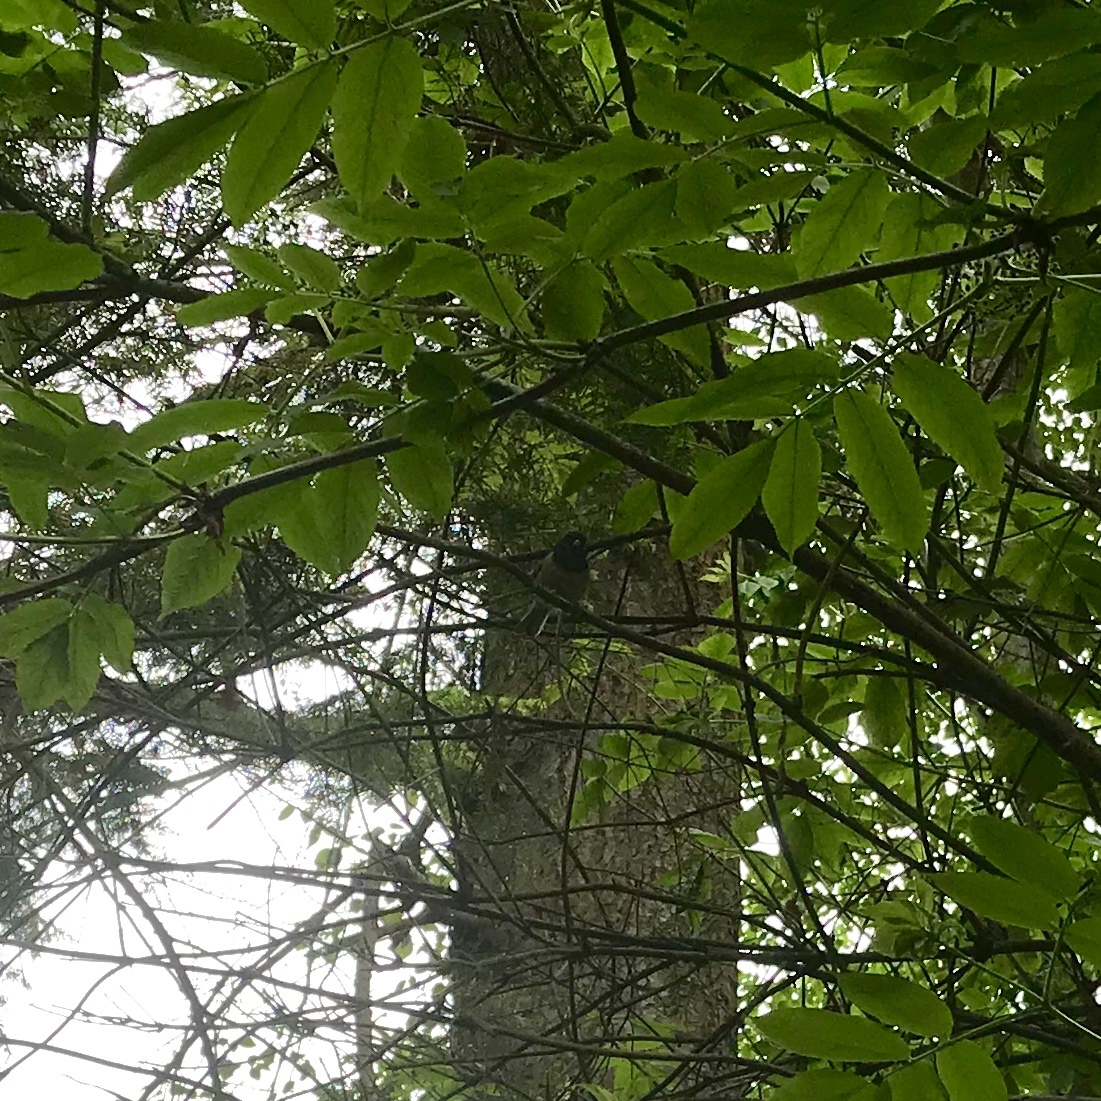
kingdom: Animalia
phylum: Chordata
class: Aves
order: Passeriformes
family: Passerellidae
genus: Junco
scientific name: Junco hyemalis
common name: Dark-eyed junco
